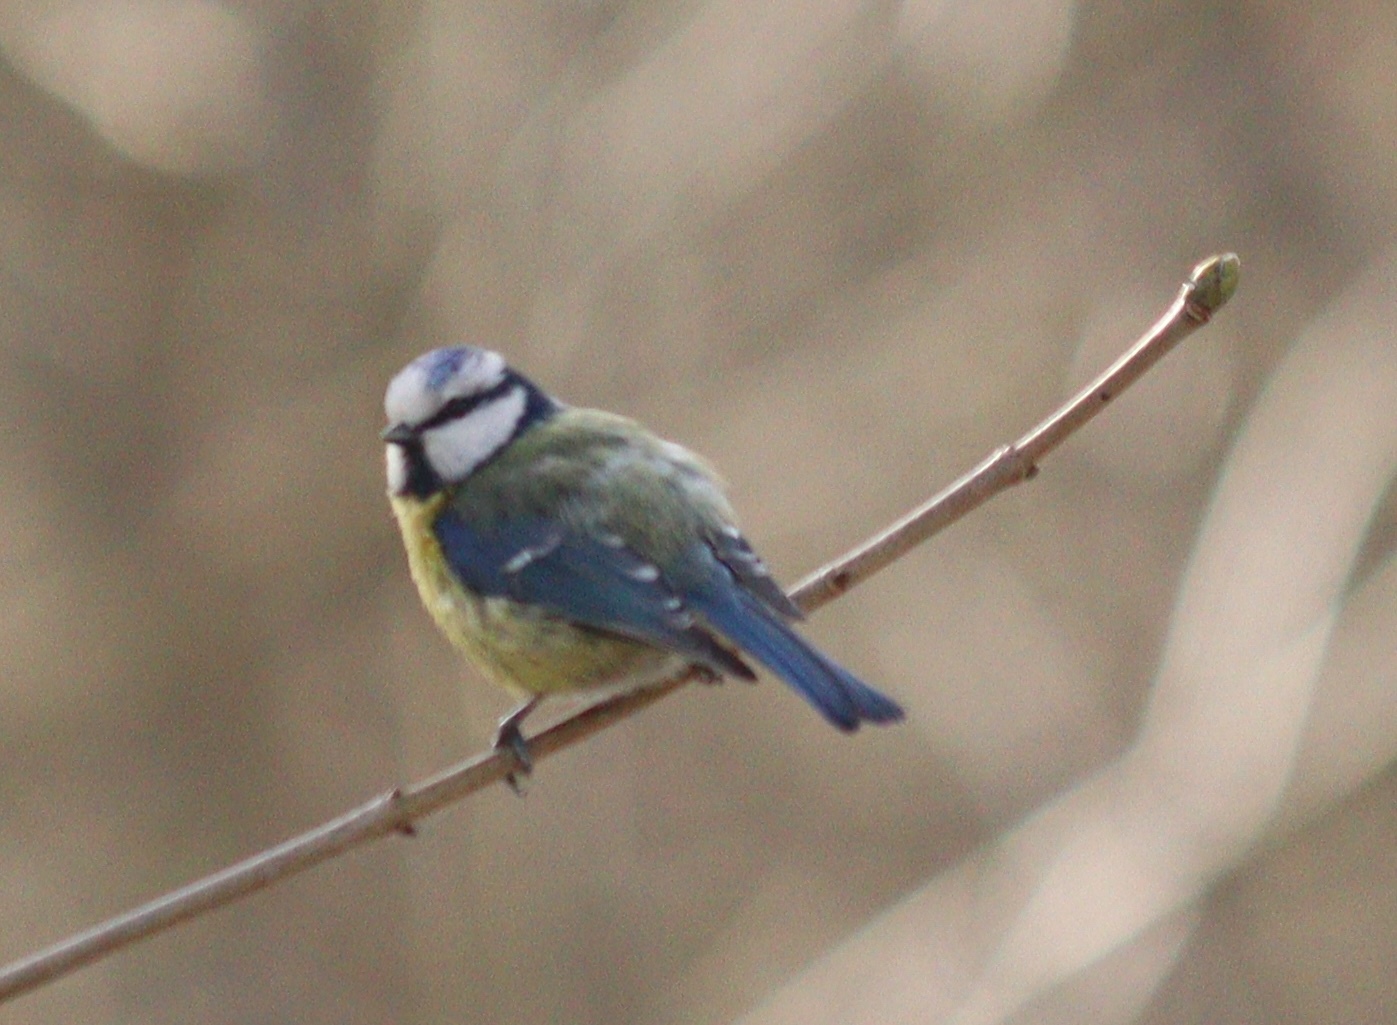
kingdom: Animalia
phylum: Chordata
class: Aves
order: Passeriformes
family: Paridae
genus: Cyanistes
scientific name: Cyanistes caeruleus
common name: Eurasian blue tit
